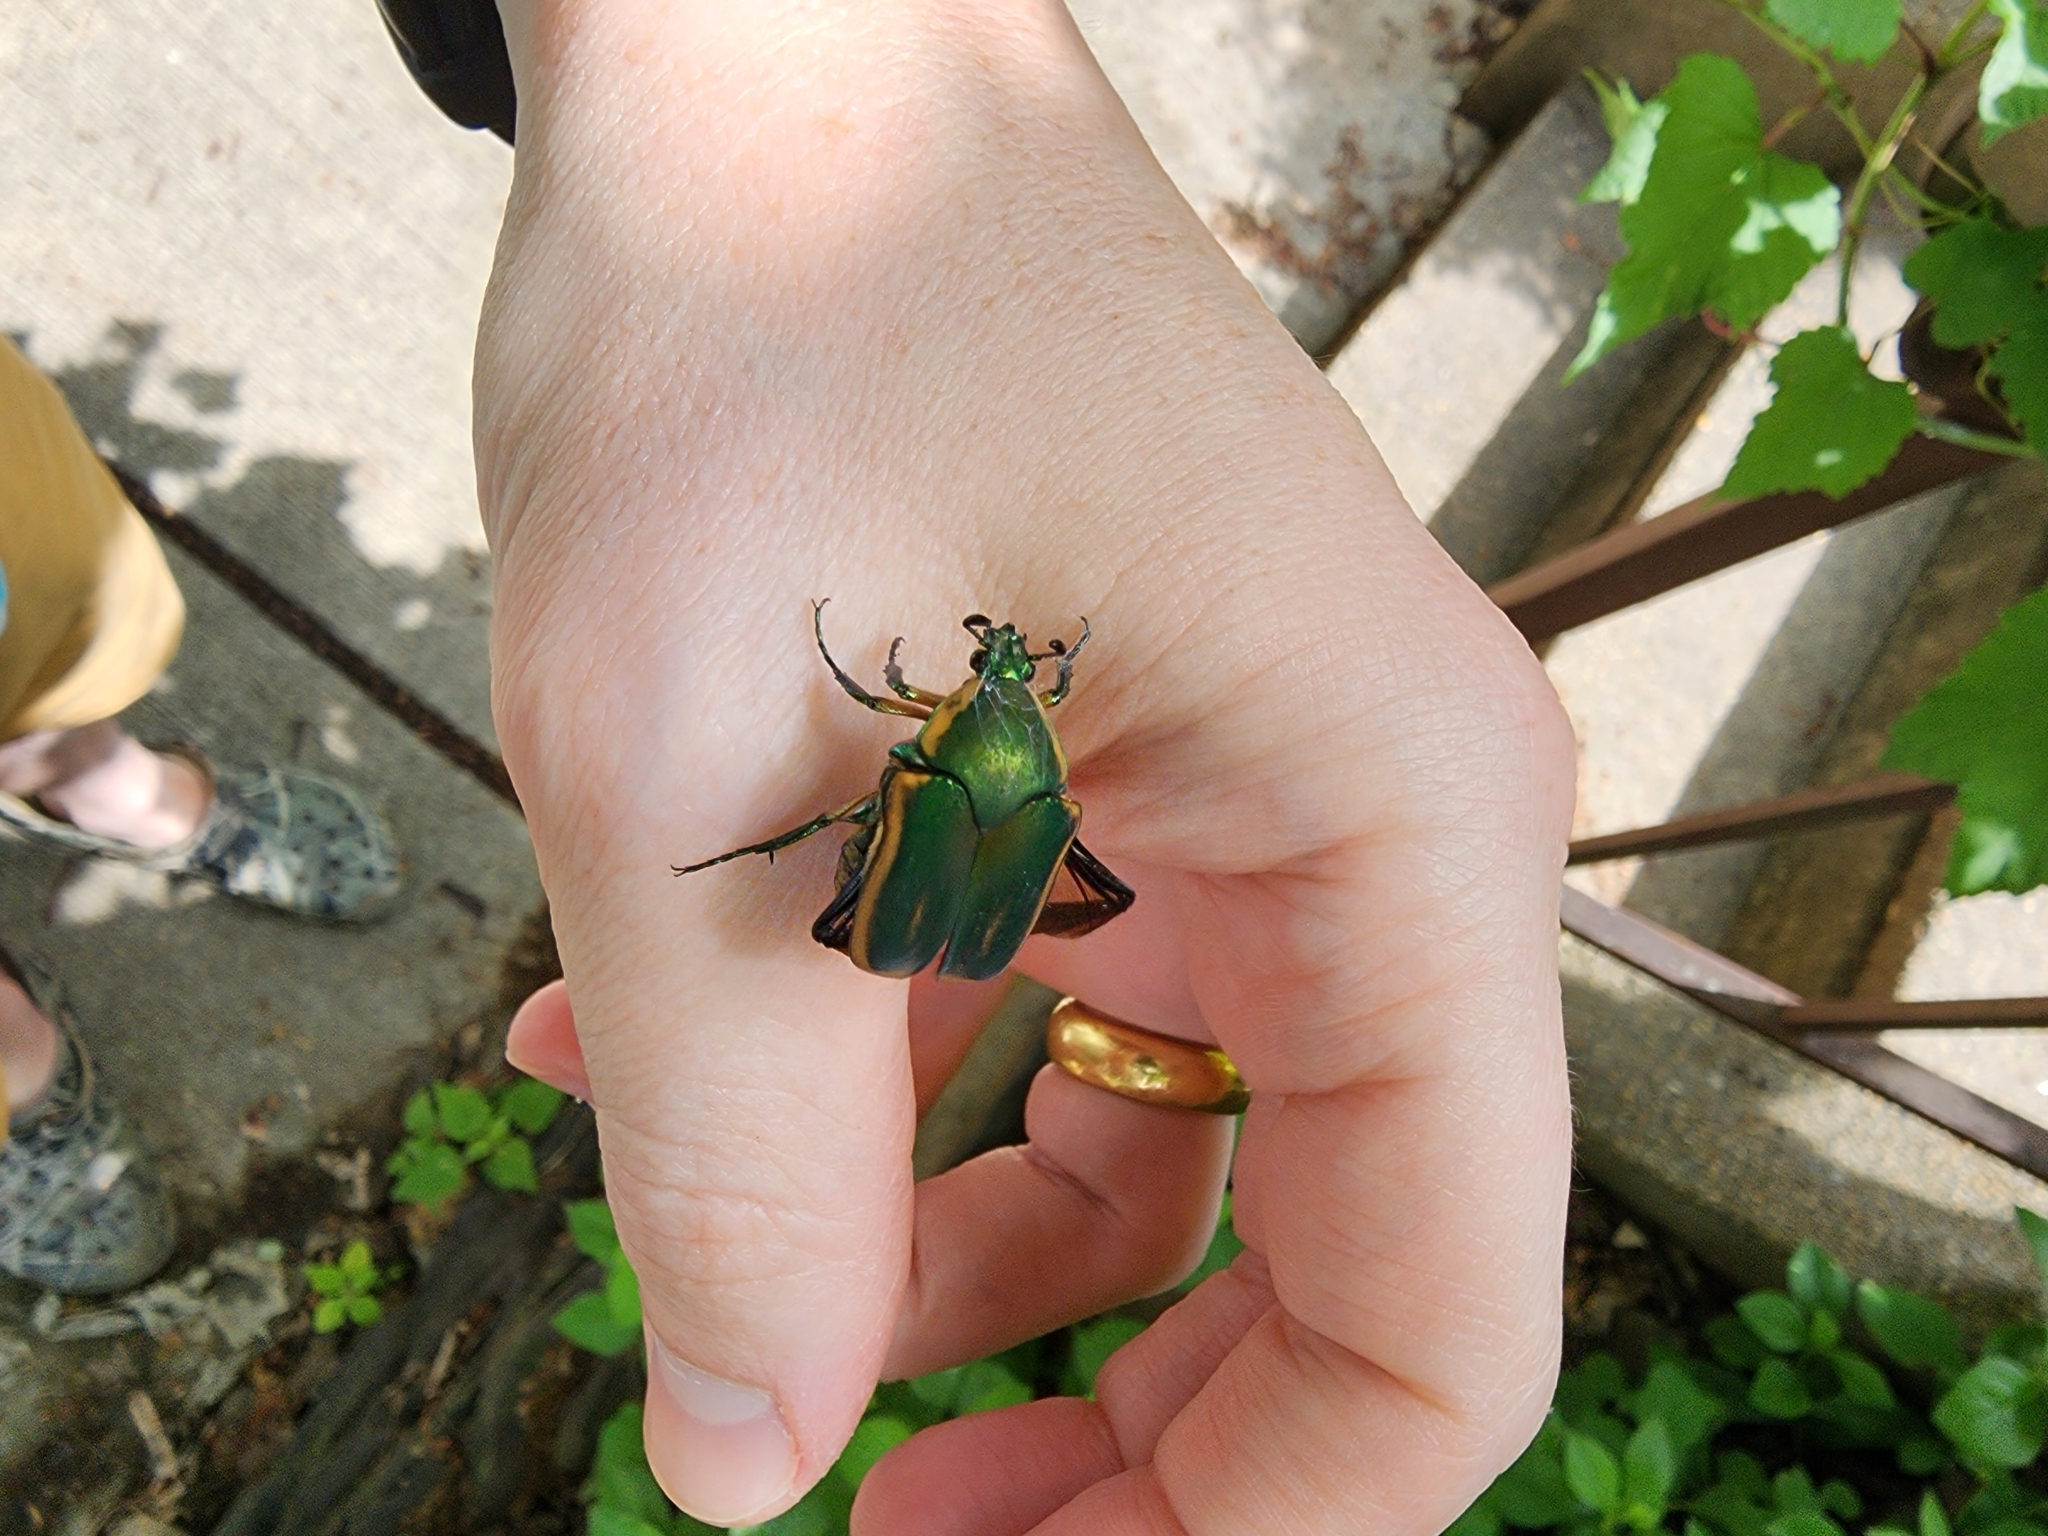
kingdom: Animalia
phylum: Arthropoda
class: Insecta
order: Coleoptera
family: Scarabaeidae
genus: Cotinis
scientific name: Cotinis nitida
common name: Common green june beetle
